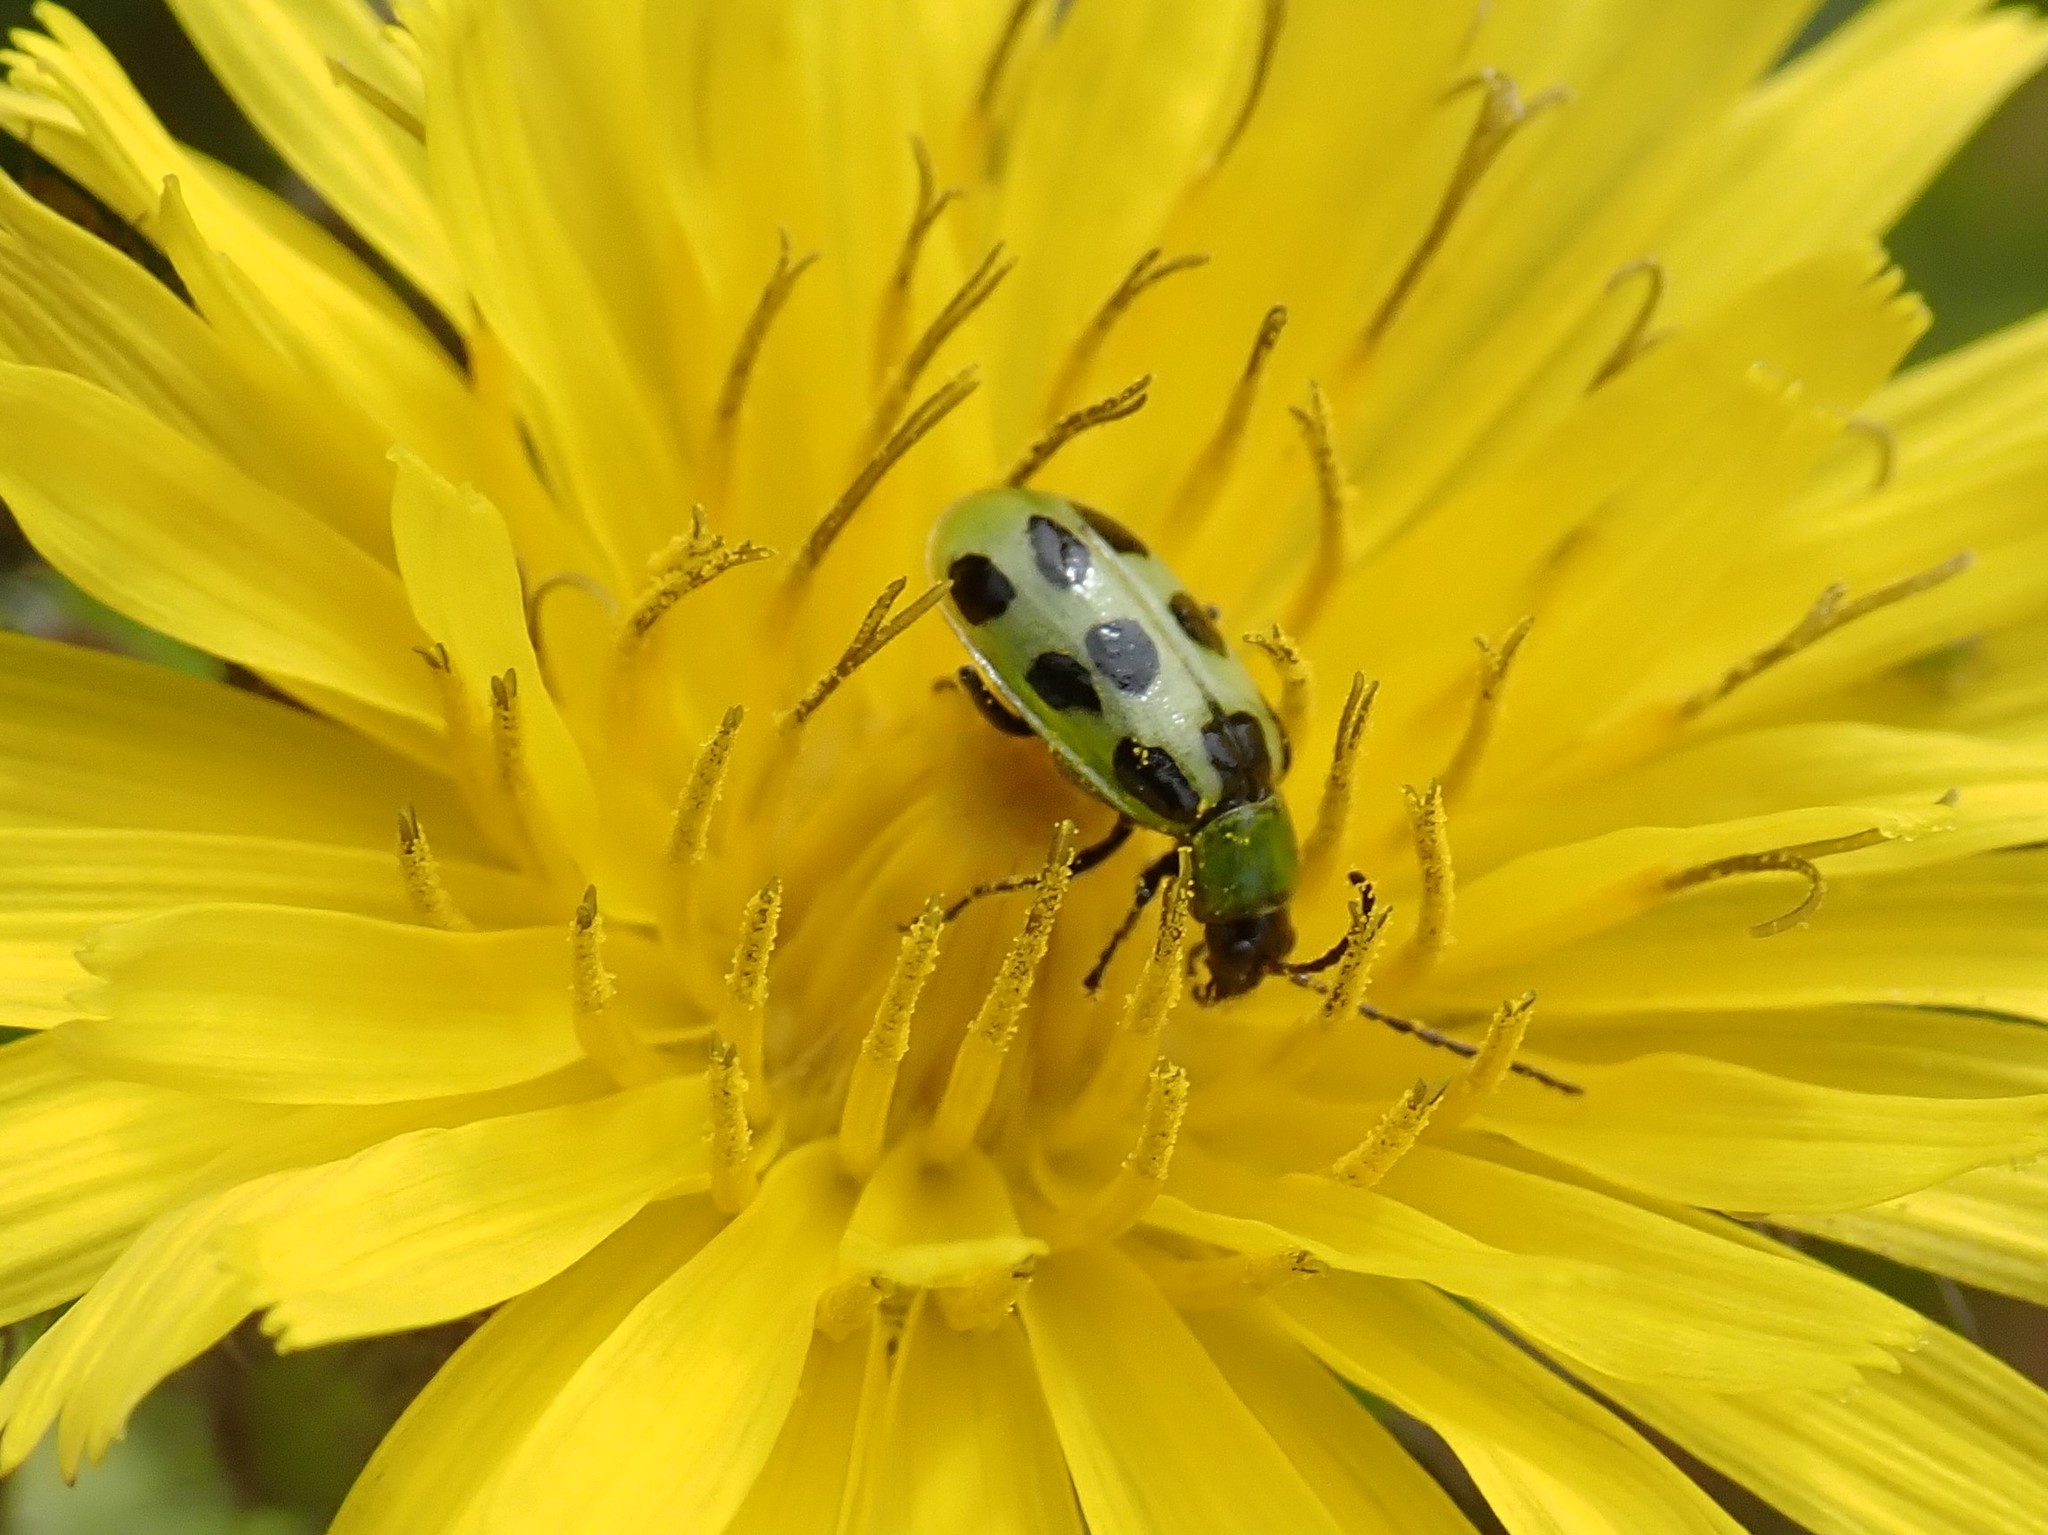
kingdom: Animalia
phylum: Arthropoda
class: Insecta
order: Coleoptera
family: Chrysomelidae
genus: Diabrotica
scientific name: Diabrotica undecimpunctata
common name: Spotted cucumber beetle
